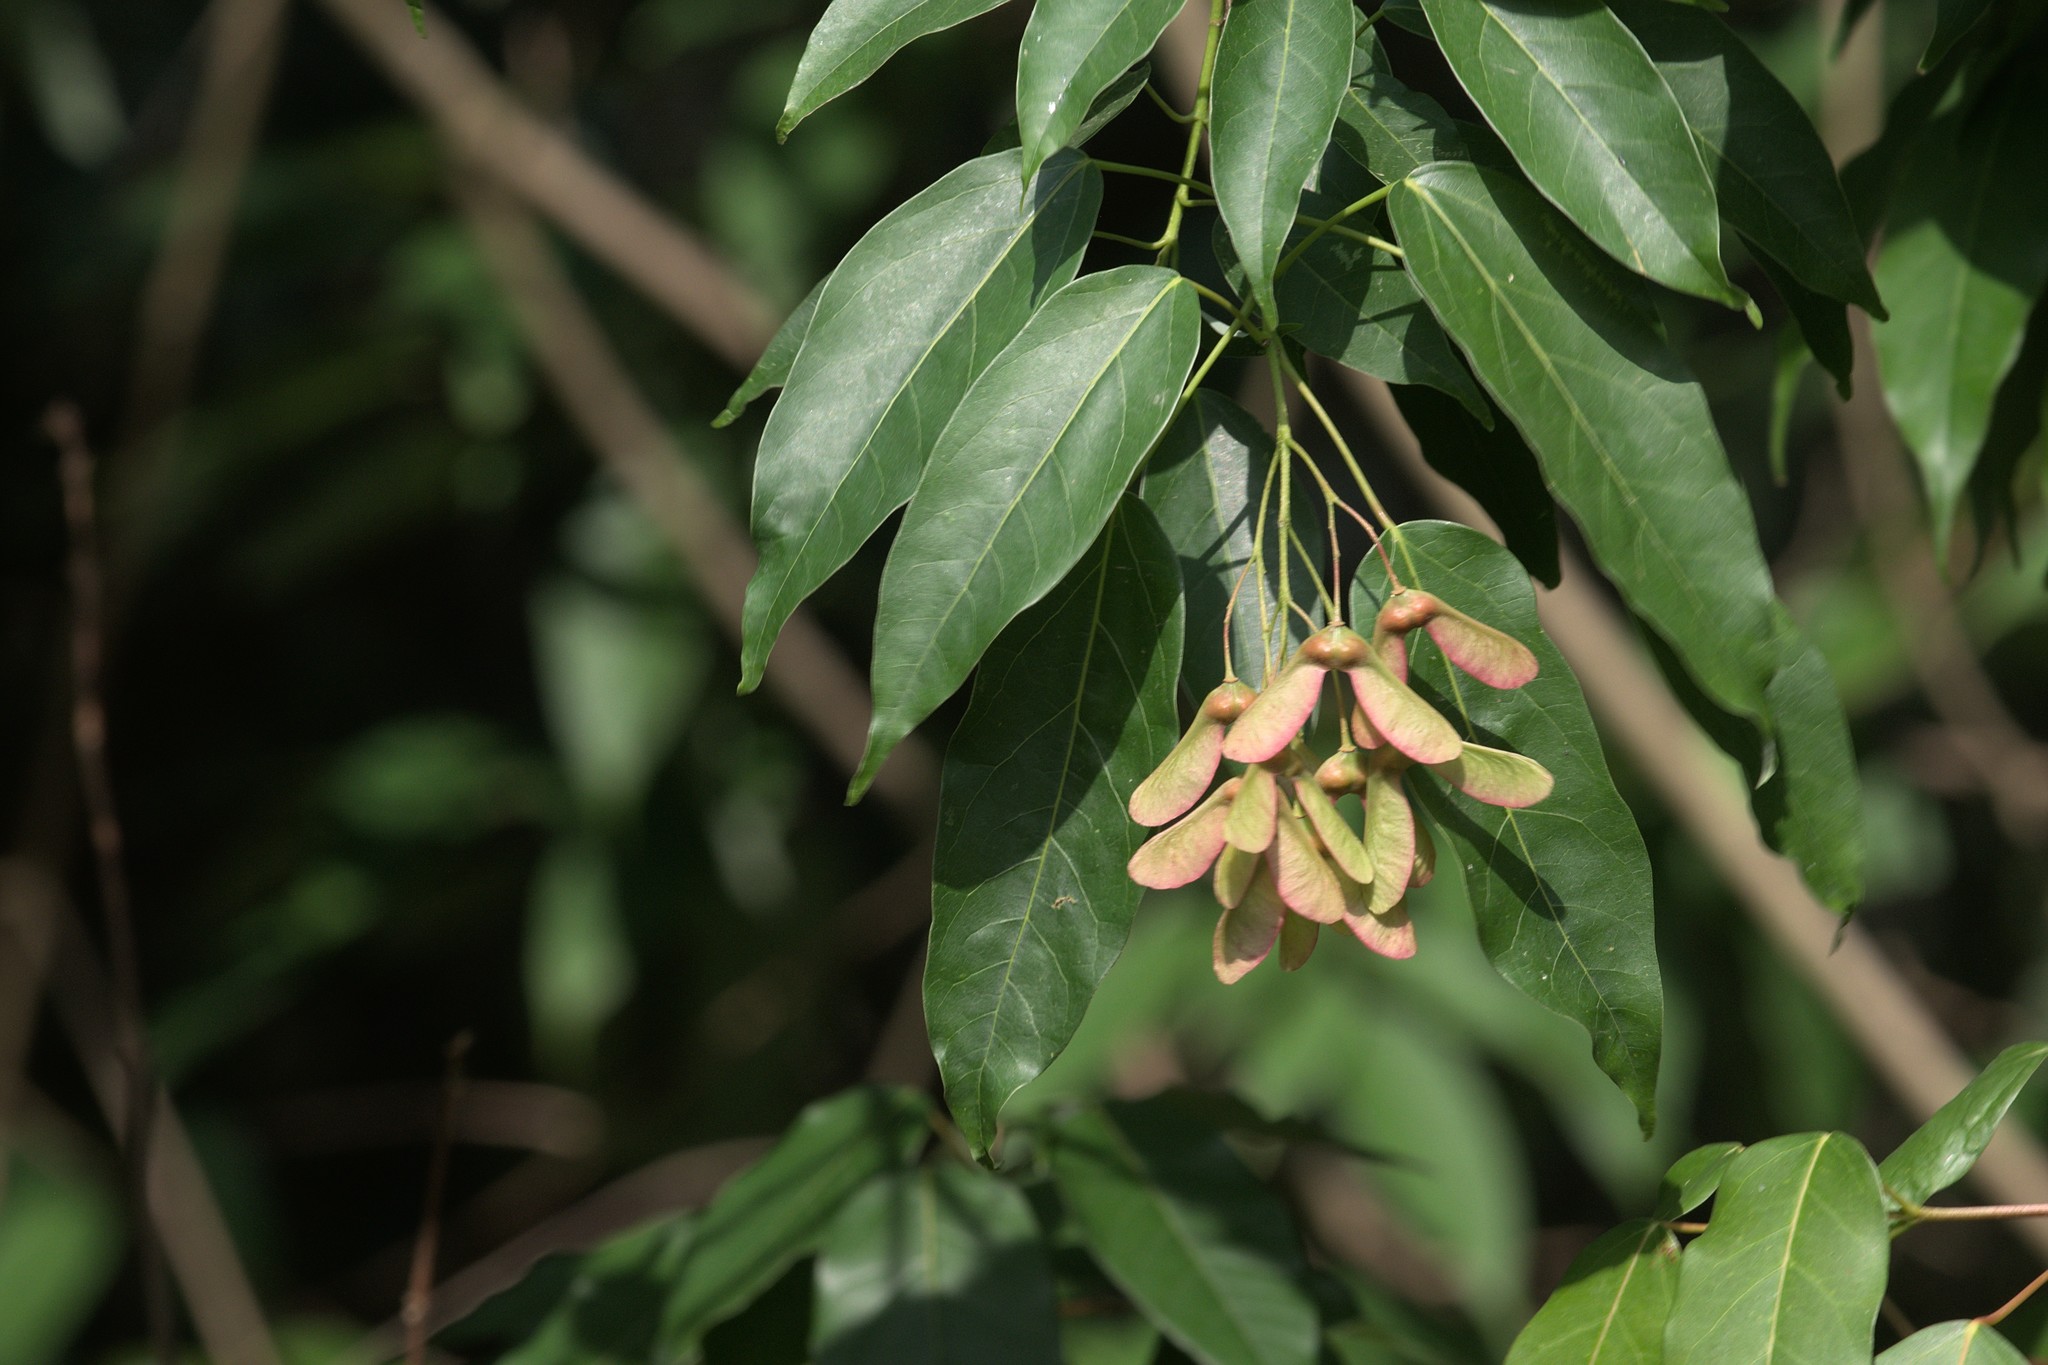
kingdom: Plantae
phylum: Tracheophyta
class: Magnoliopsida
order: Sapindales
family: Sapindaceae
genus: Acer
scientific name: Acer oblongum
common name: Himalayan maple
